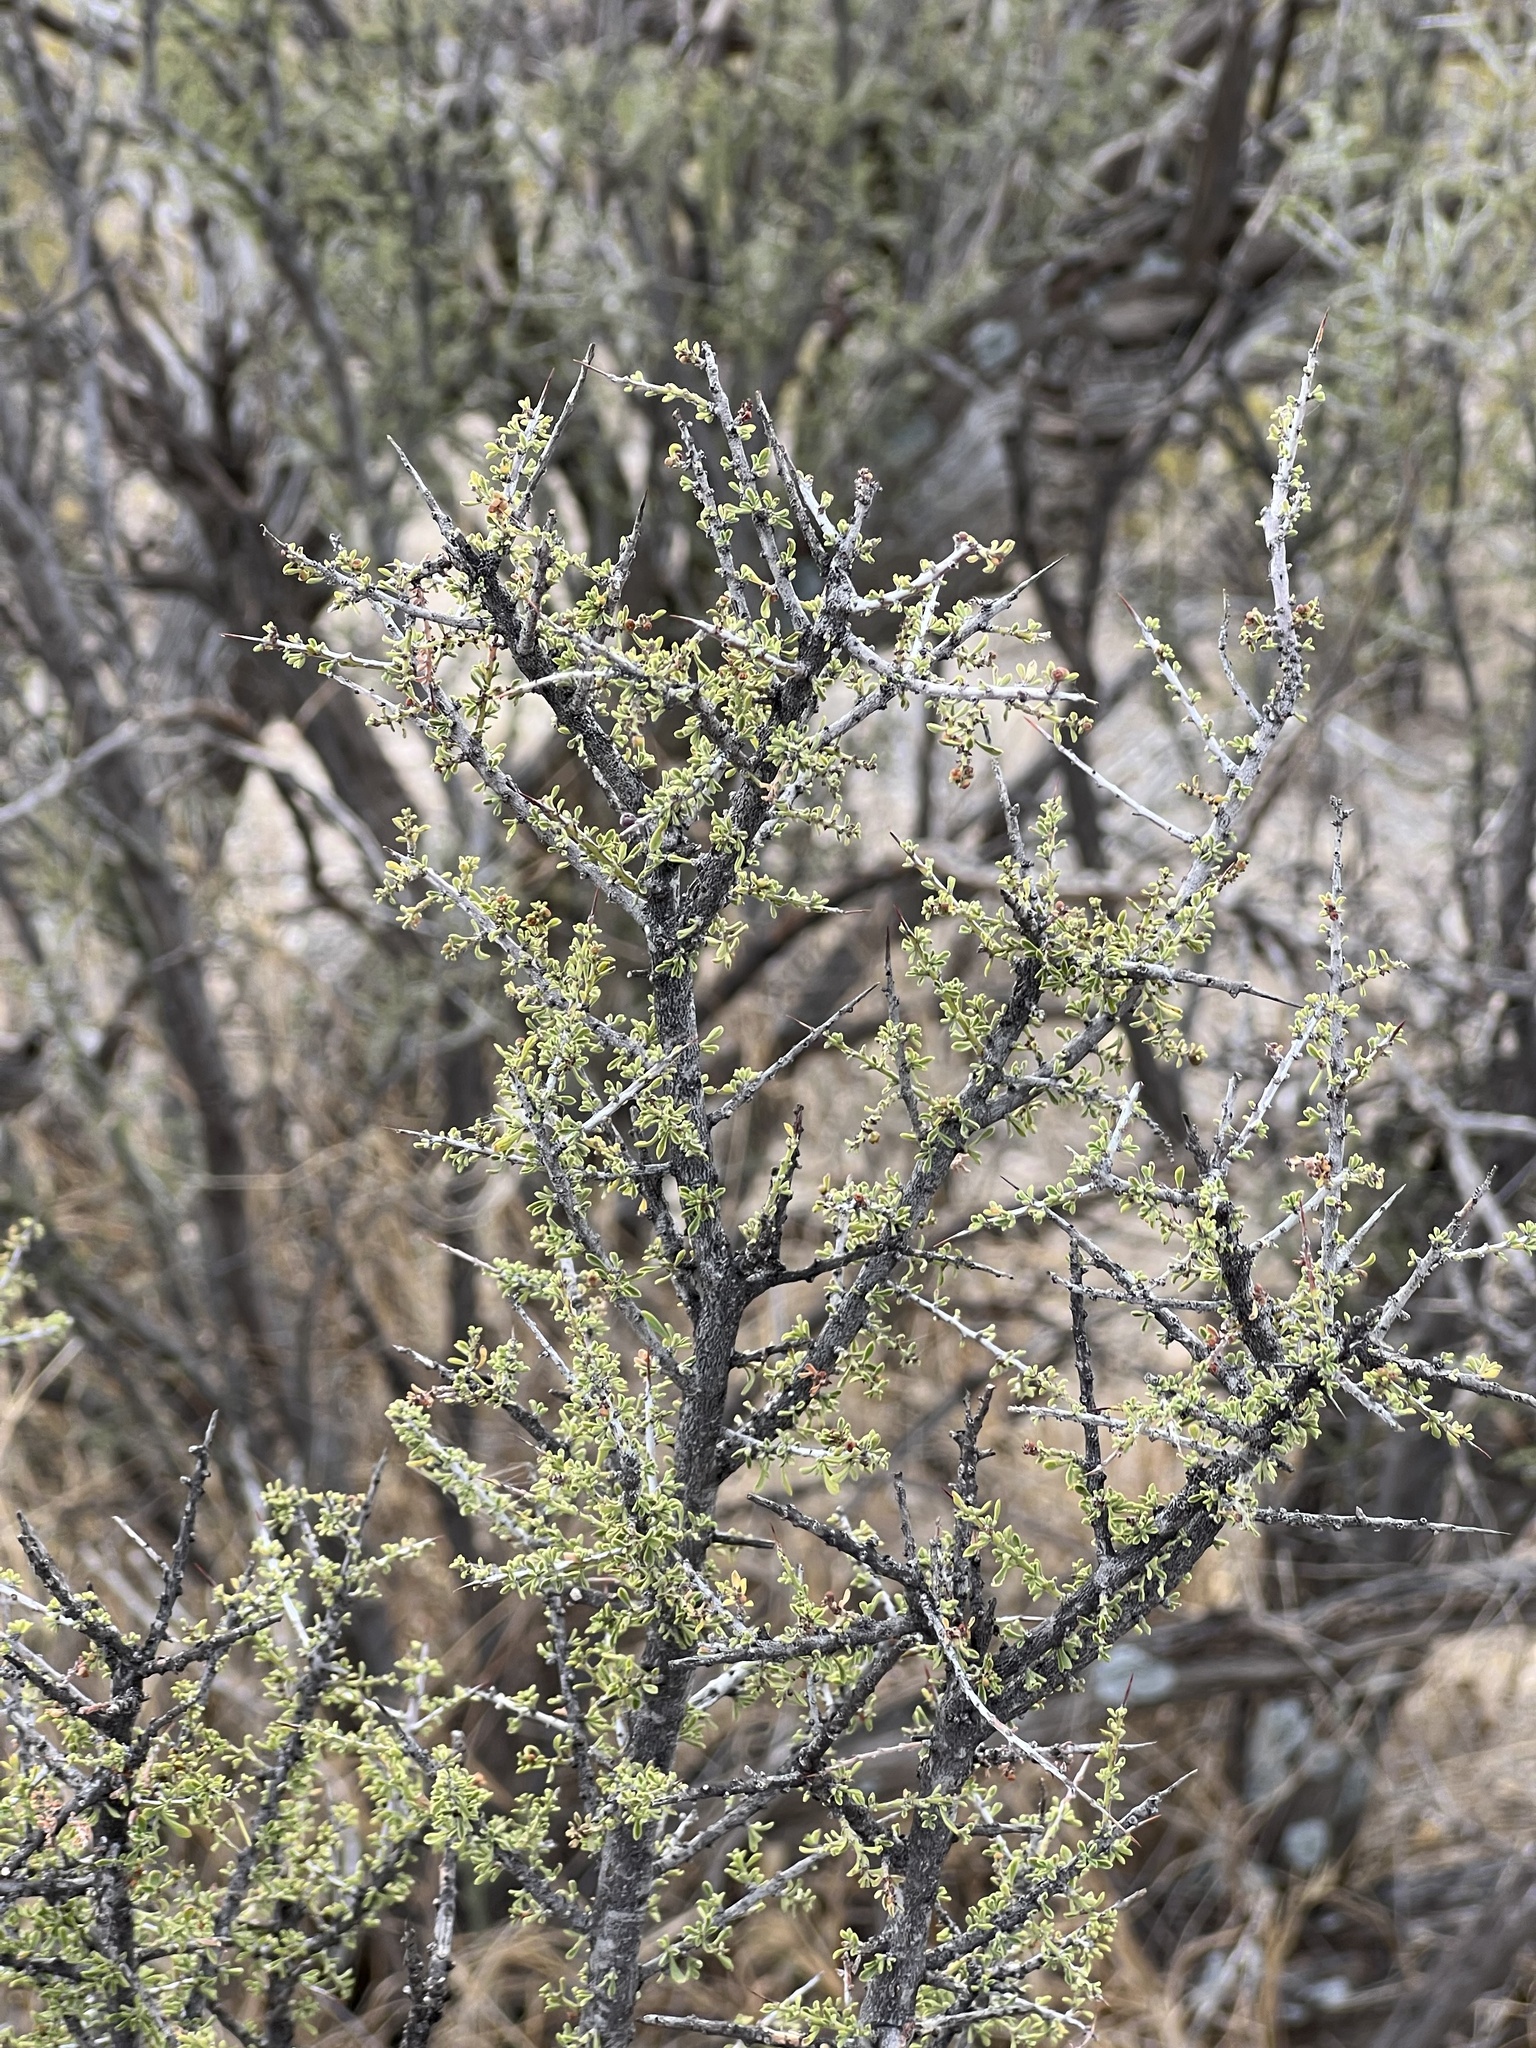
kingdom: Plantae
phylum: Tracheophyta
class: Magnoliopsida
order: Rosales
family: Rhamnaceae
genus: Condalia
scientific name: Condalia warnockii
